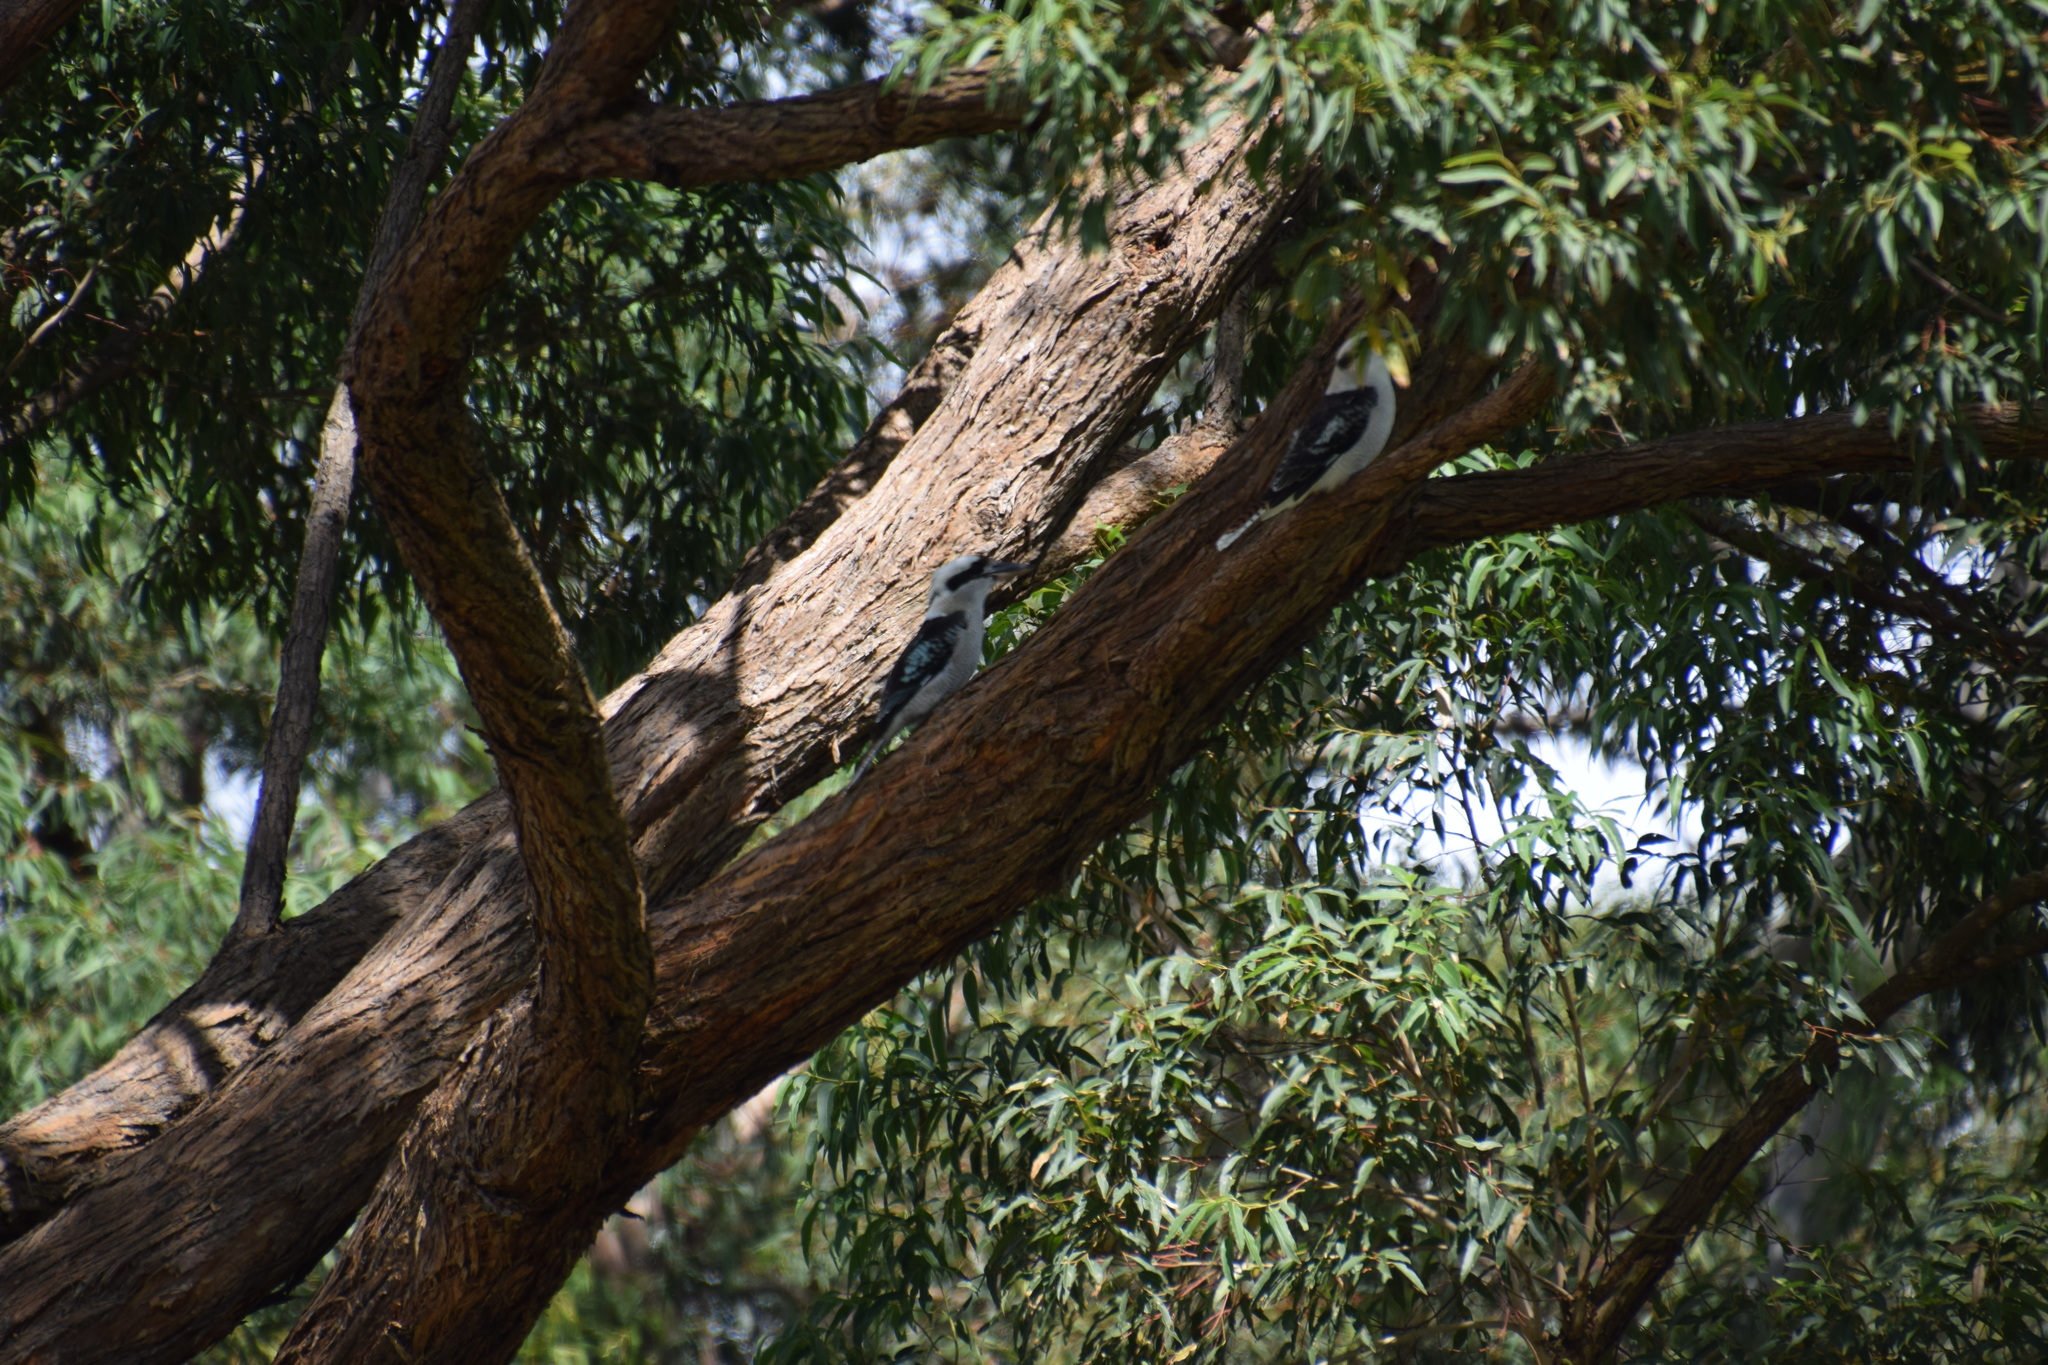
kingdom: Animalia
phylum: Chordata
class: Aves
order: Coraciiformes
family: Alcedinidae
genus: Dacelo
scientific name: Dacelo novaeguineae
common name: Laughing kookaburra
